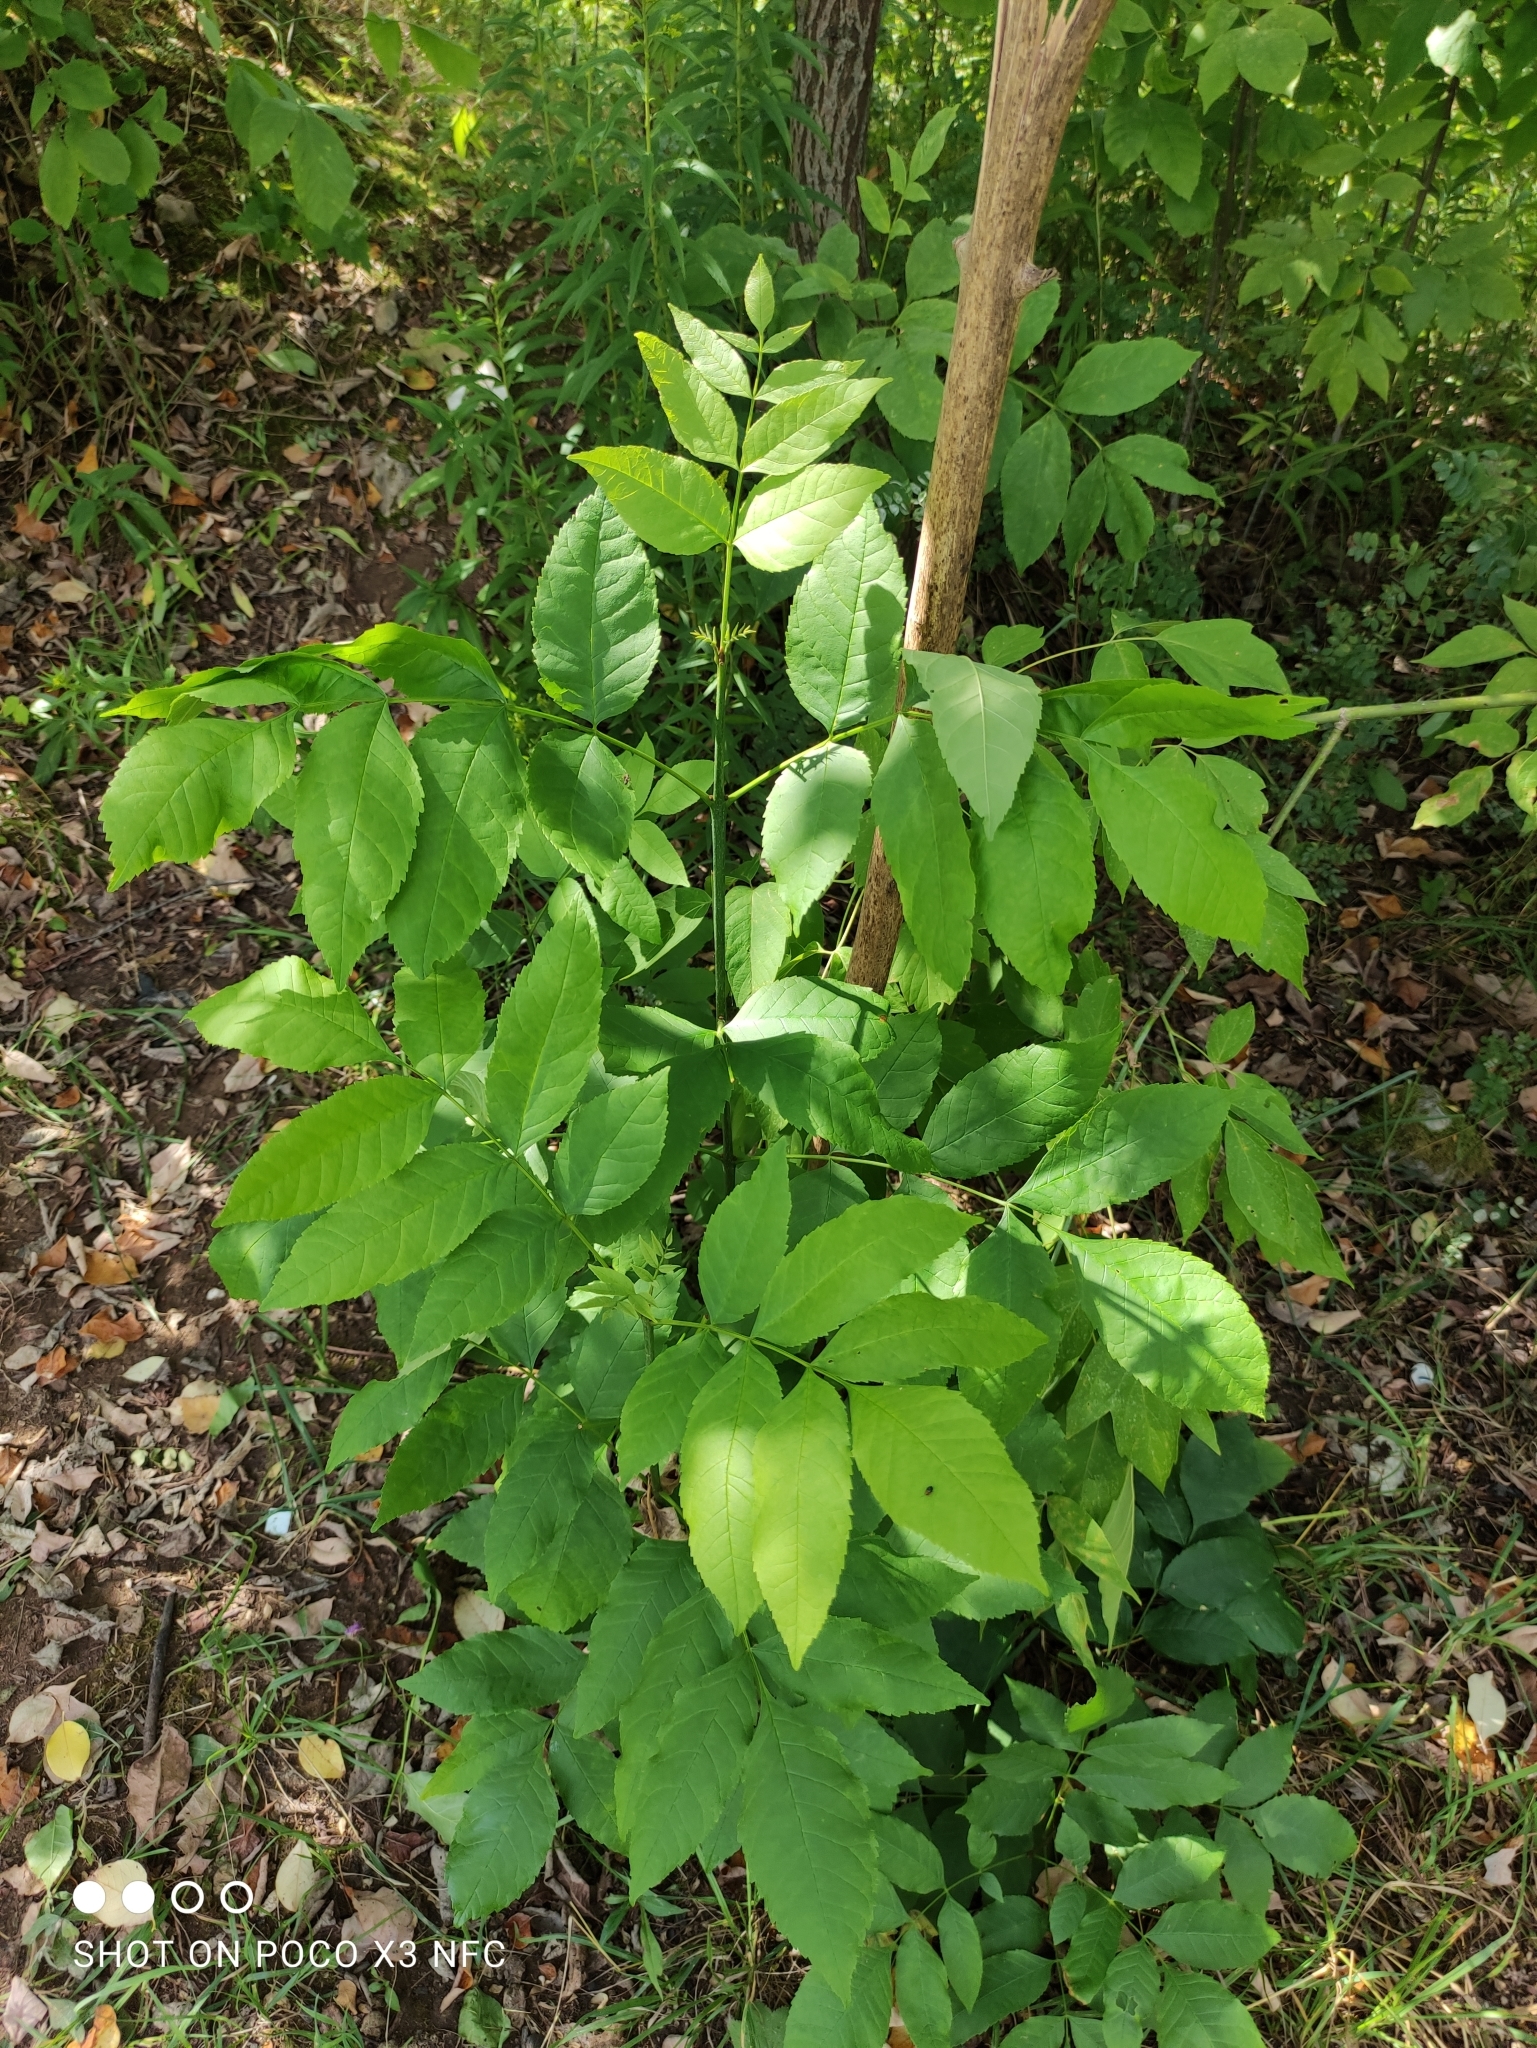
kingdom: Plantae
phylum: Tracheophyta
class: Magnoliopsida
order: Lamiales
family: Oleaceae
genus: Fraxinus
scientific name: Fraxinus pennsylvanica
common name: Green ash
